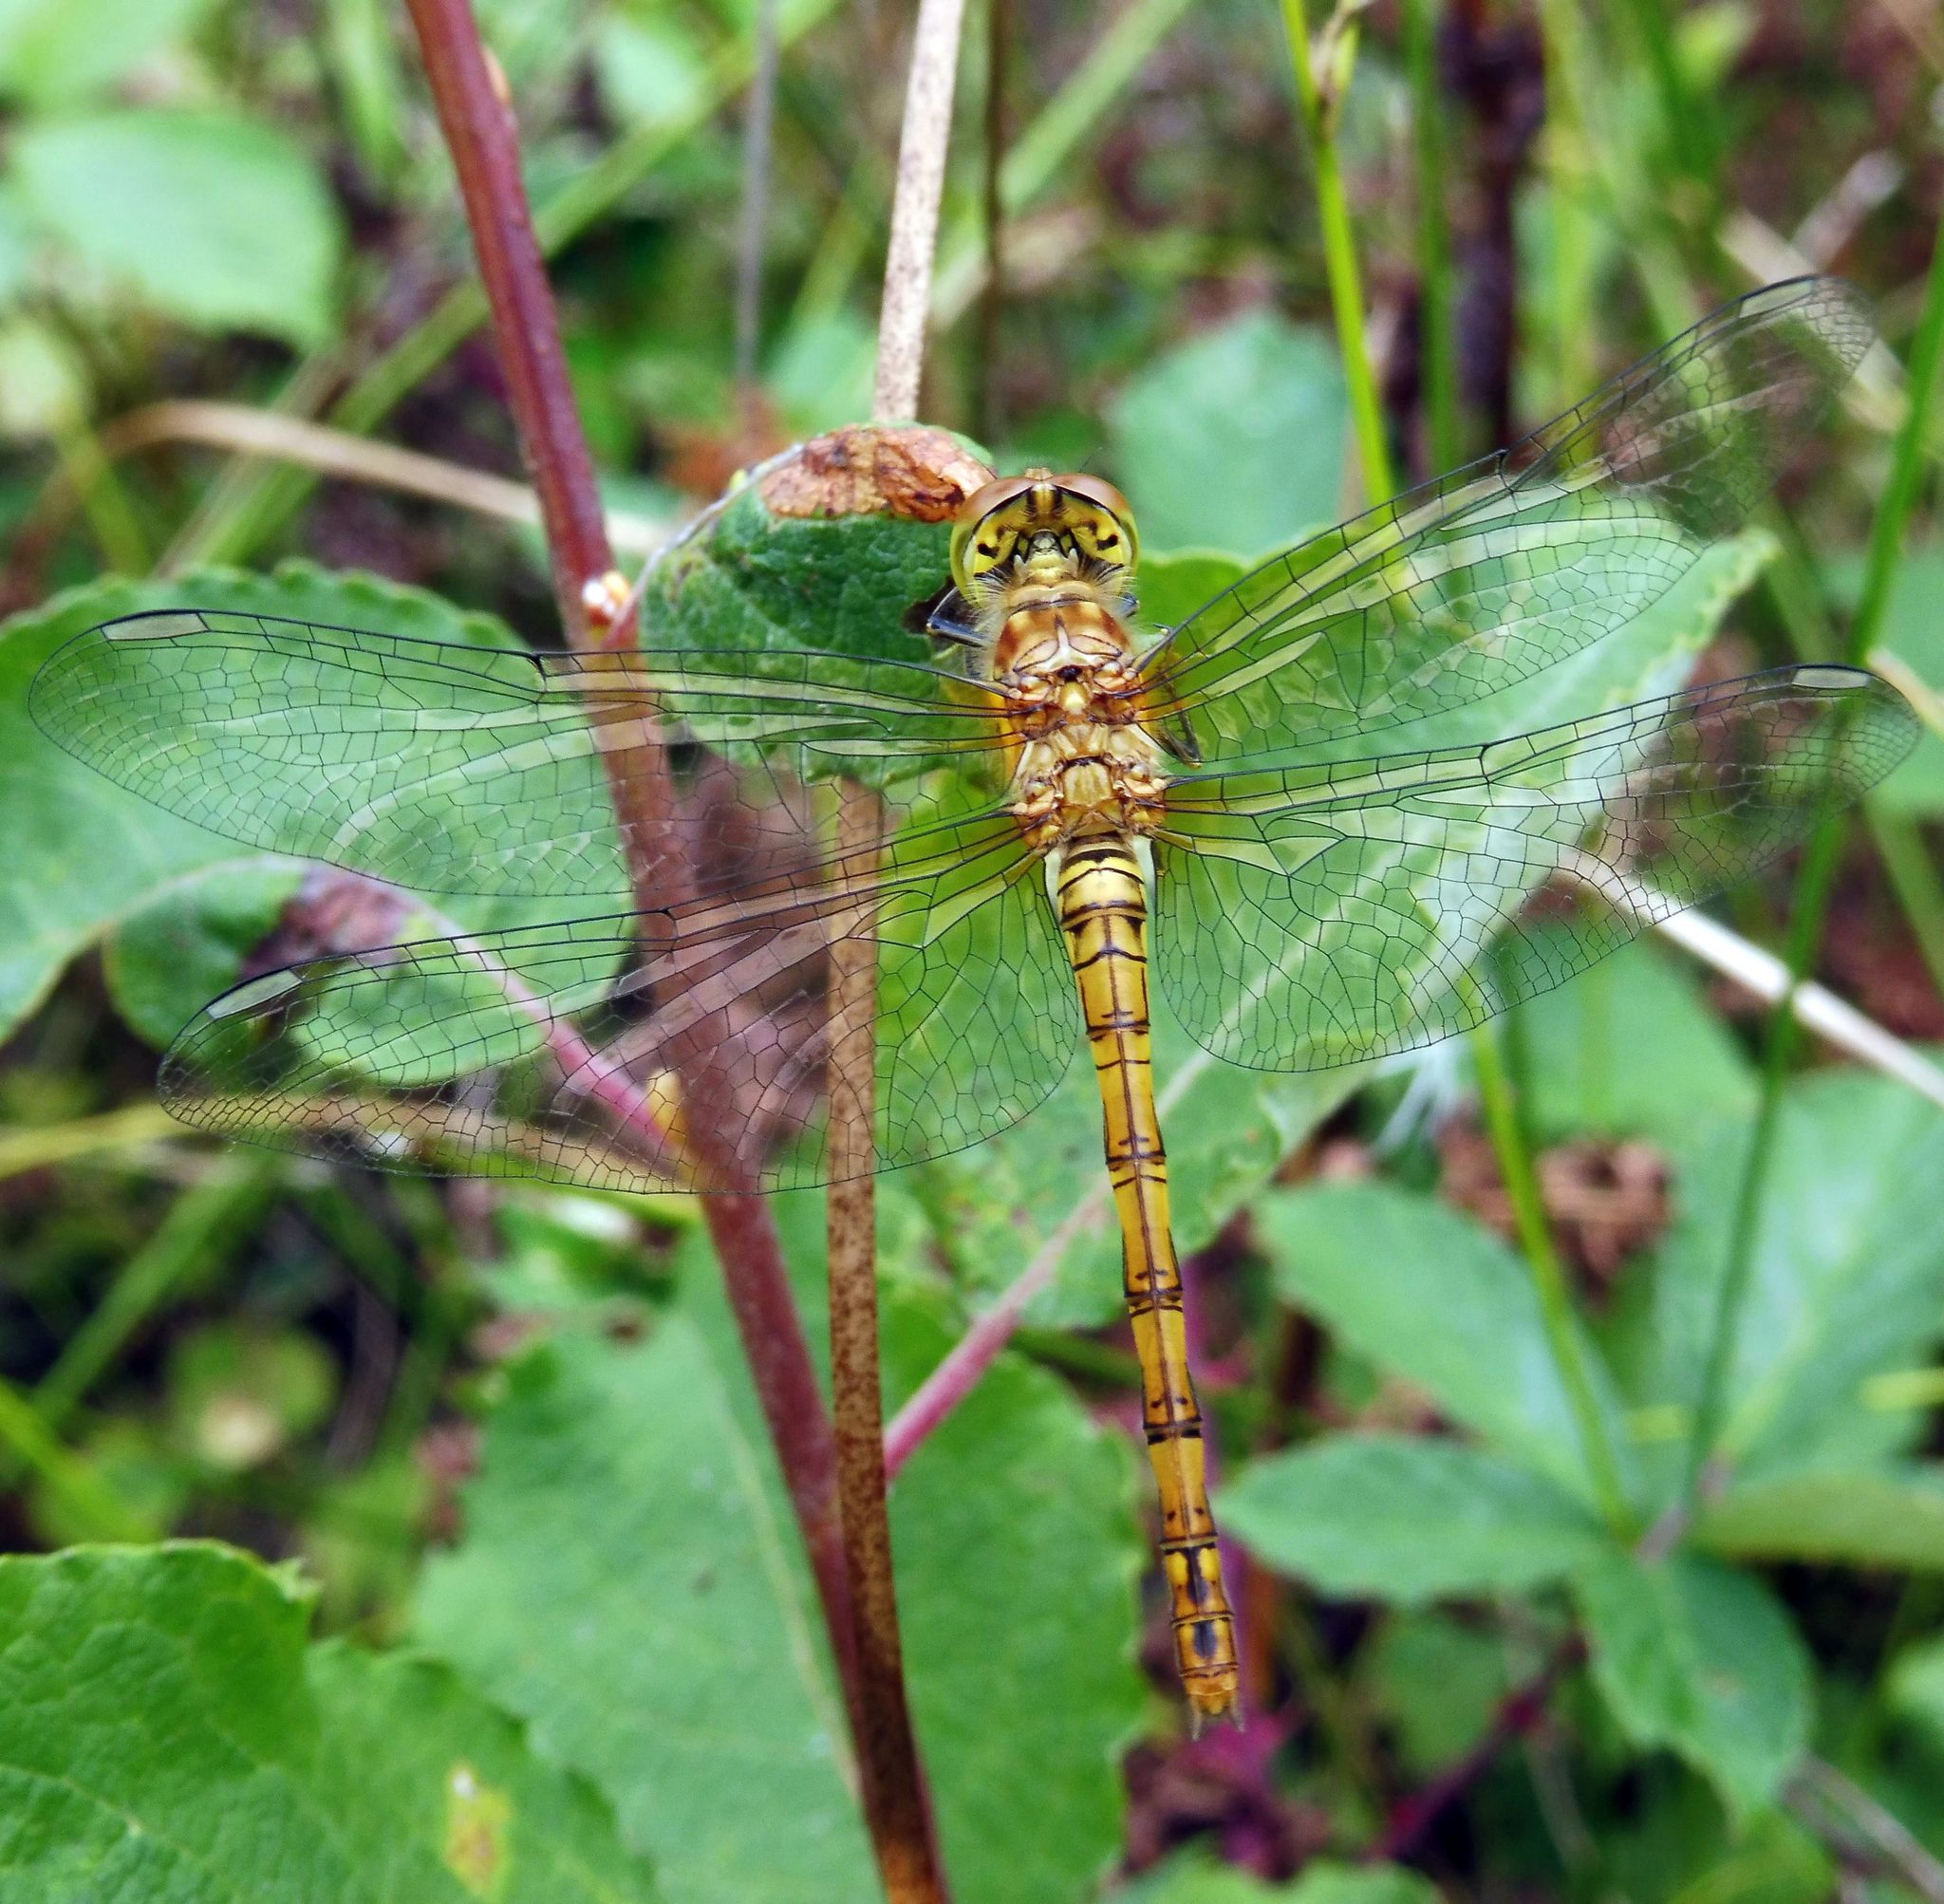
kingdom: Animalia
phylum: Arthropoda
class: Insecta
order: Odonata
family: Libellulidae
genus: Sympetrum
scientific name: Sympetrum striolatum
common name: Common darter
